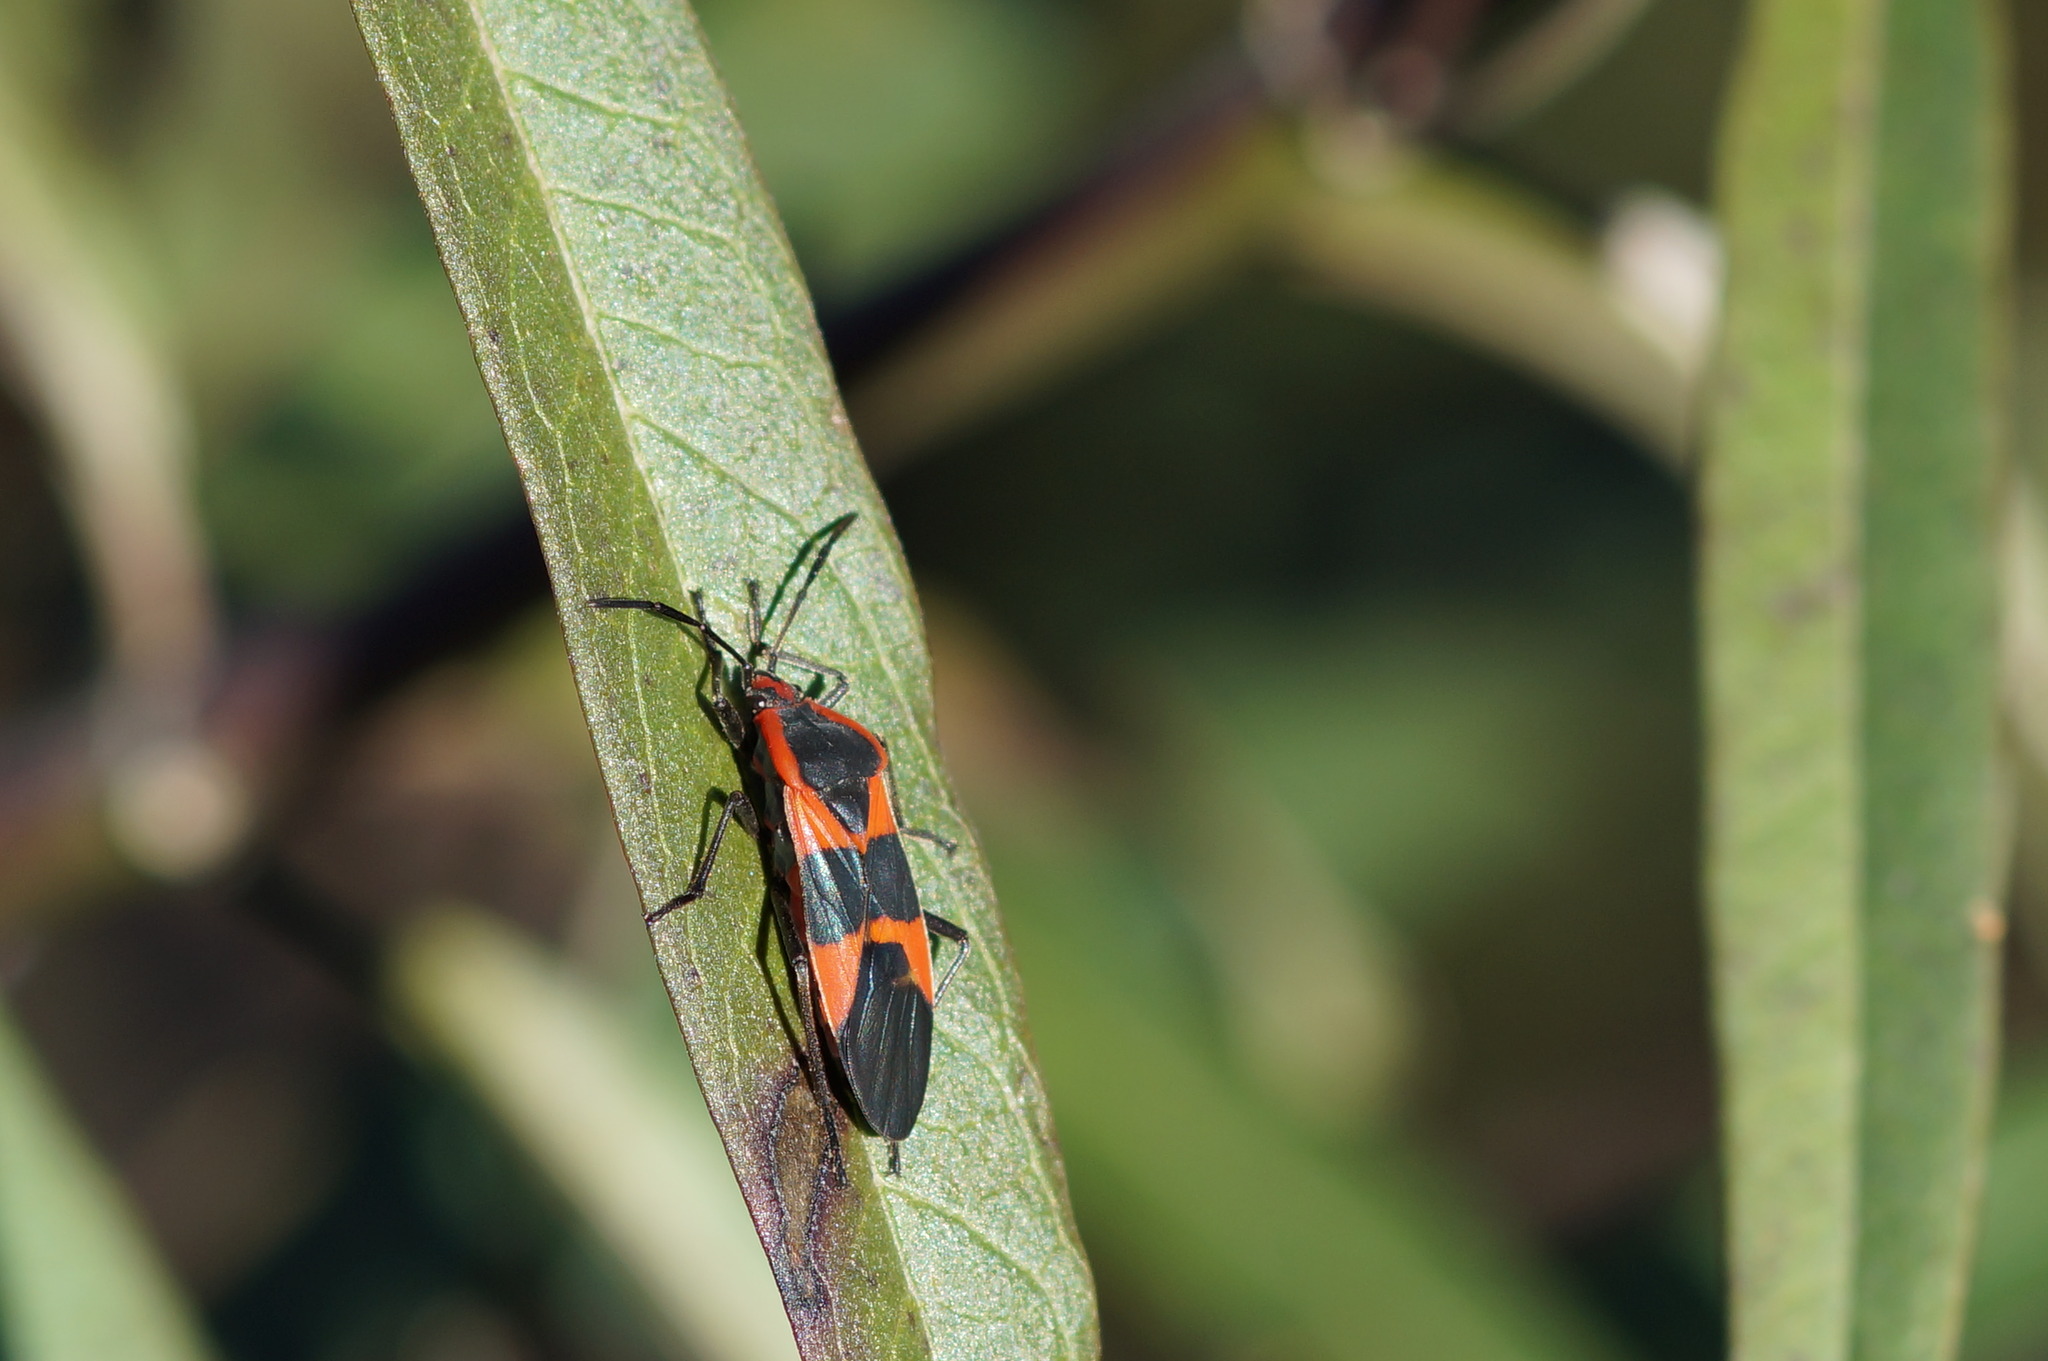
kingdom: Animalia
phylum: Arthropoda
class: Insecta
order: Hemiptera
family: Lygaeidae
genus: Oncopeltus
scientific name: Oncopeltus fasciatus
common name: Large milkweed bug
